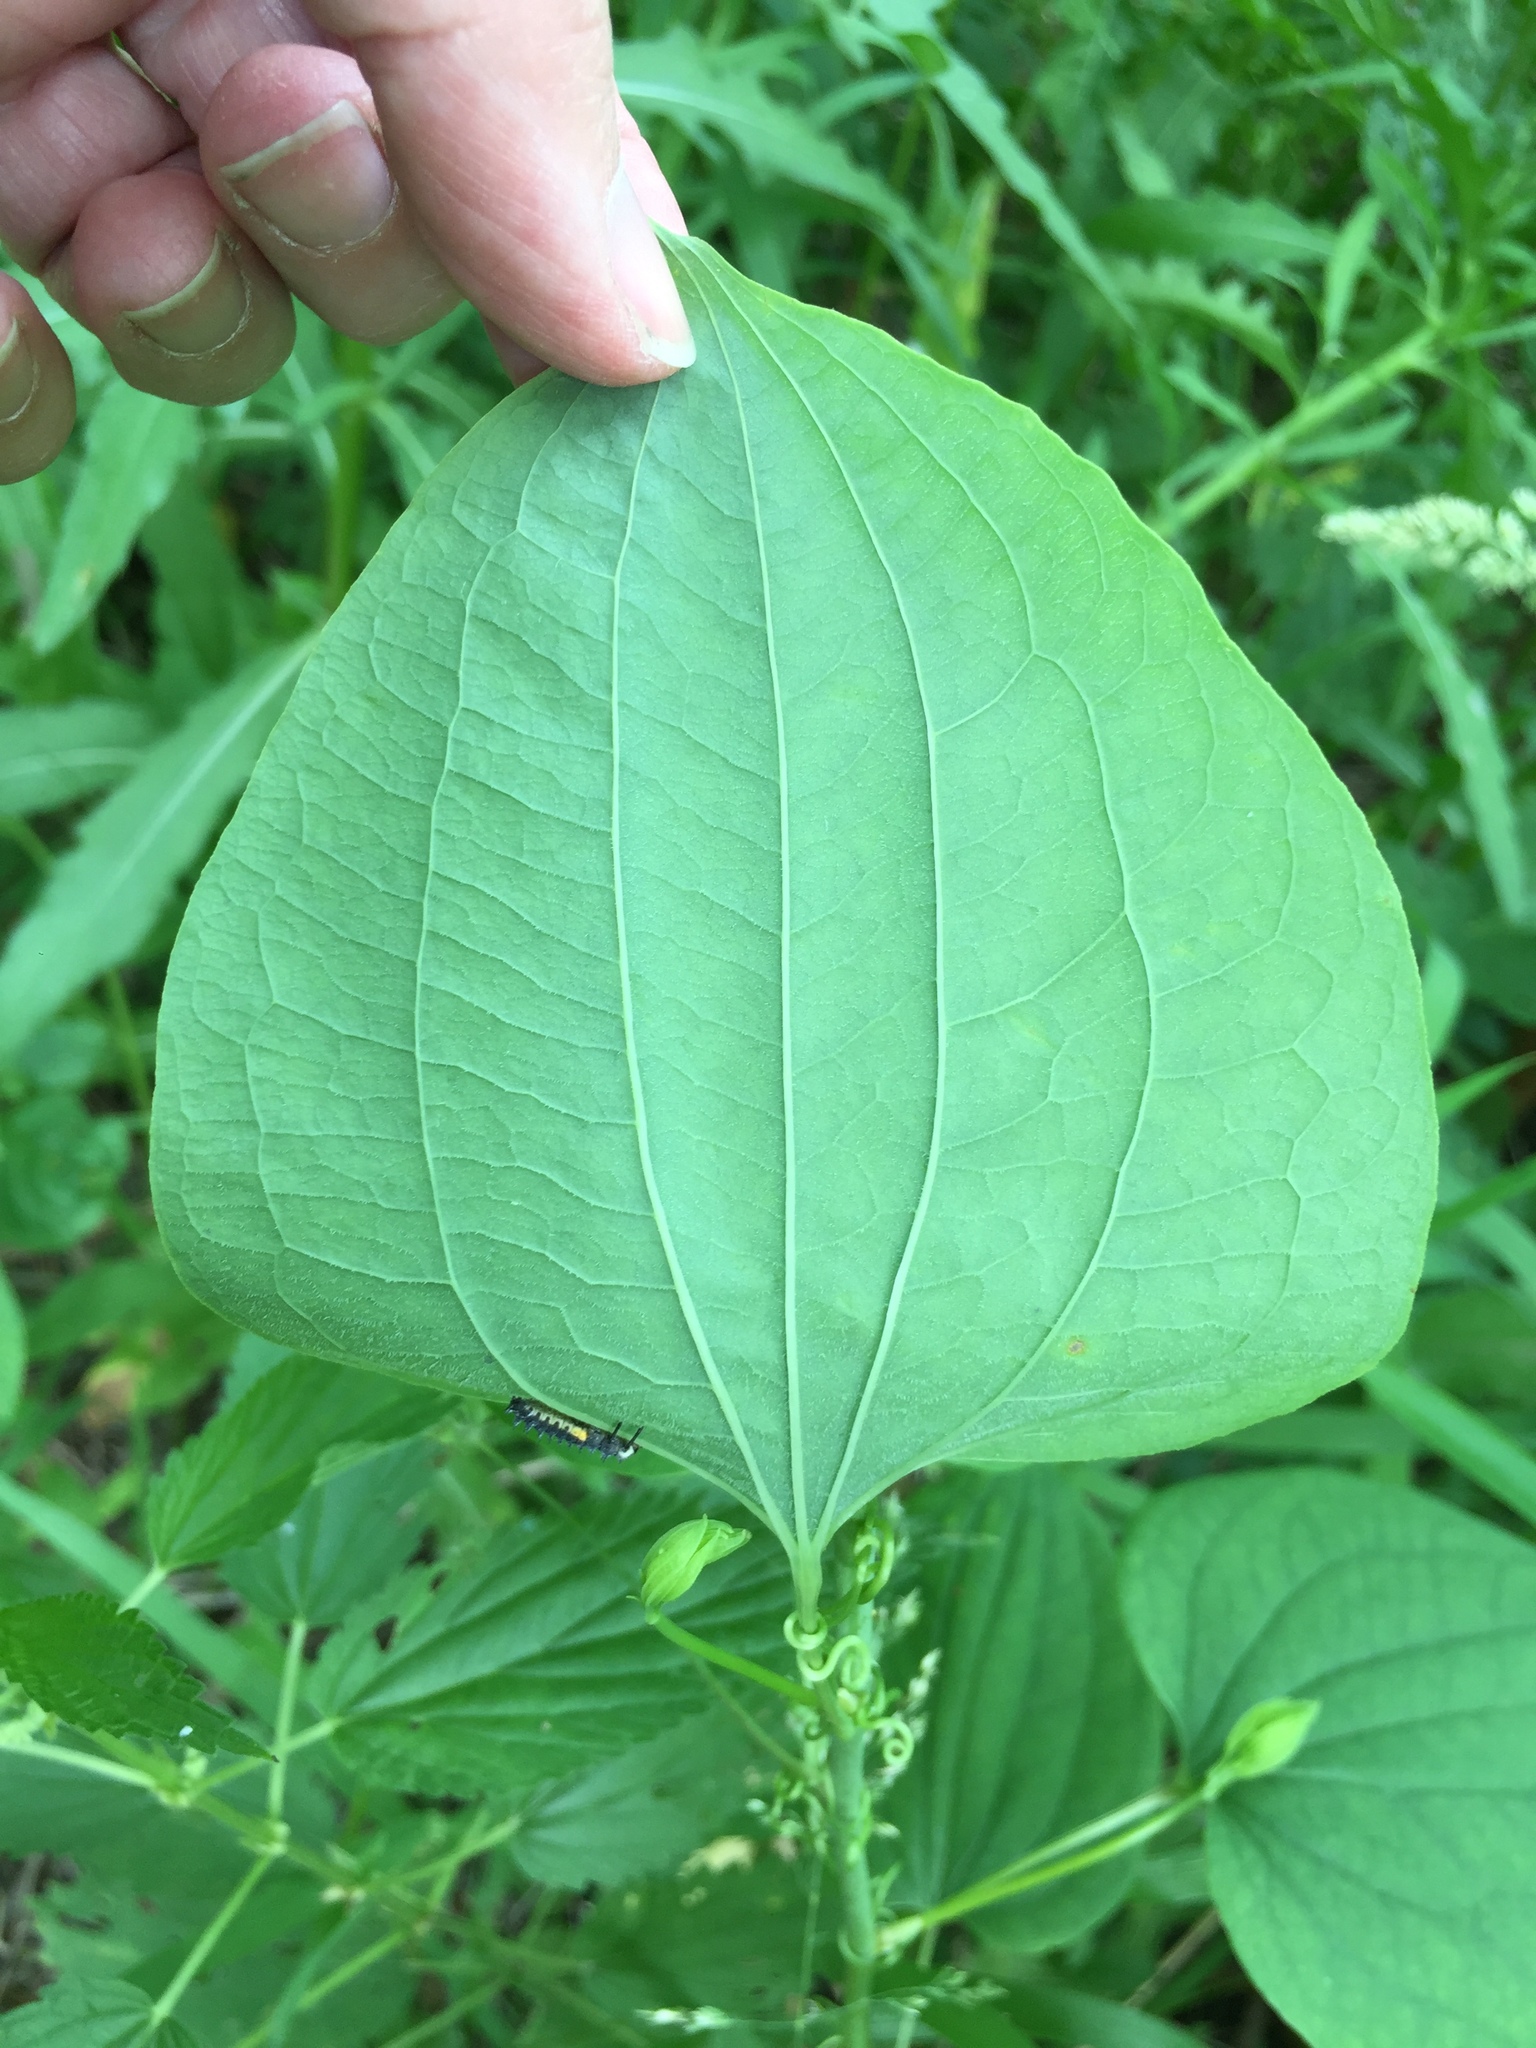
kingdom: Plantae
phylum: Tracheophyta
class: Liliopsida
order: Liliales
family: Smilacaceae
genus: Smilax
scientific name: Smilax lasioneura
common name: Blue ridge carrionflower
